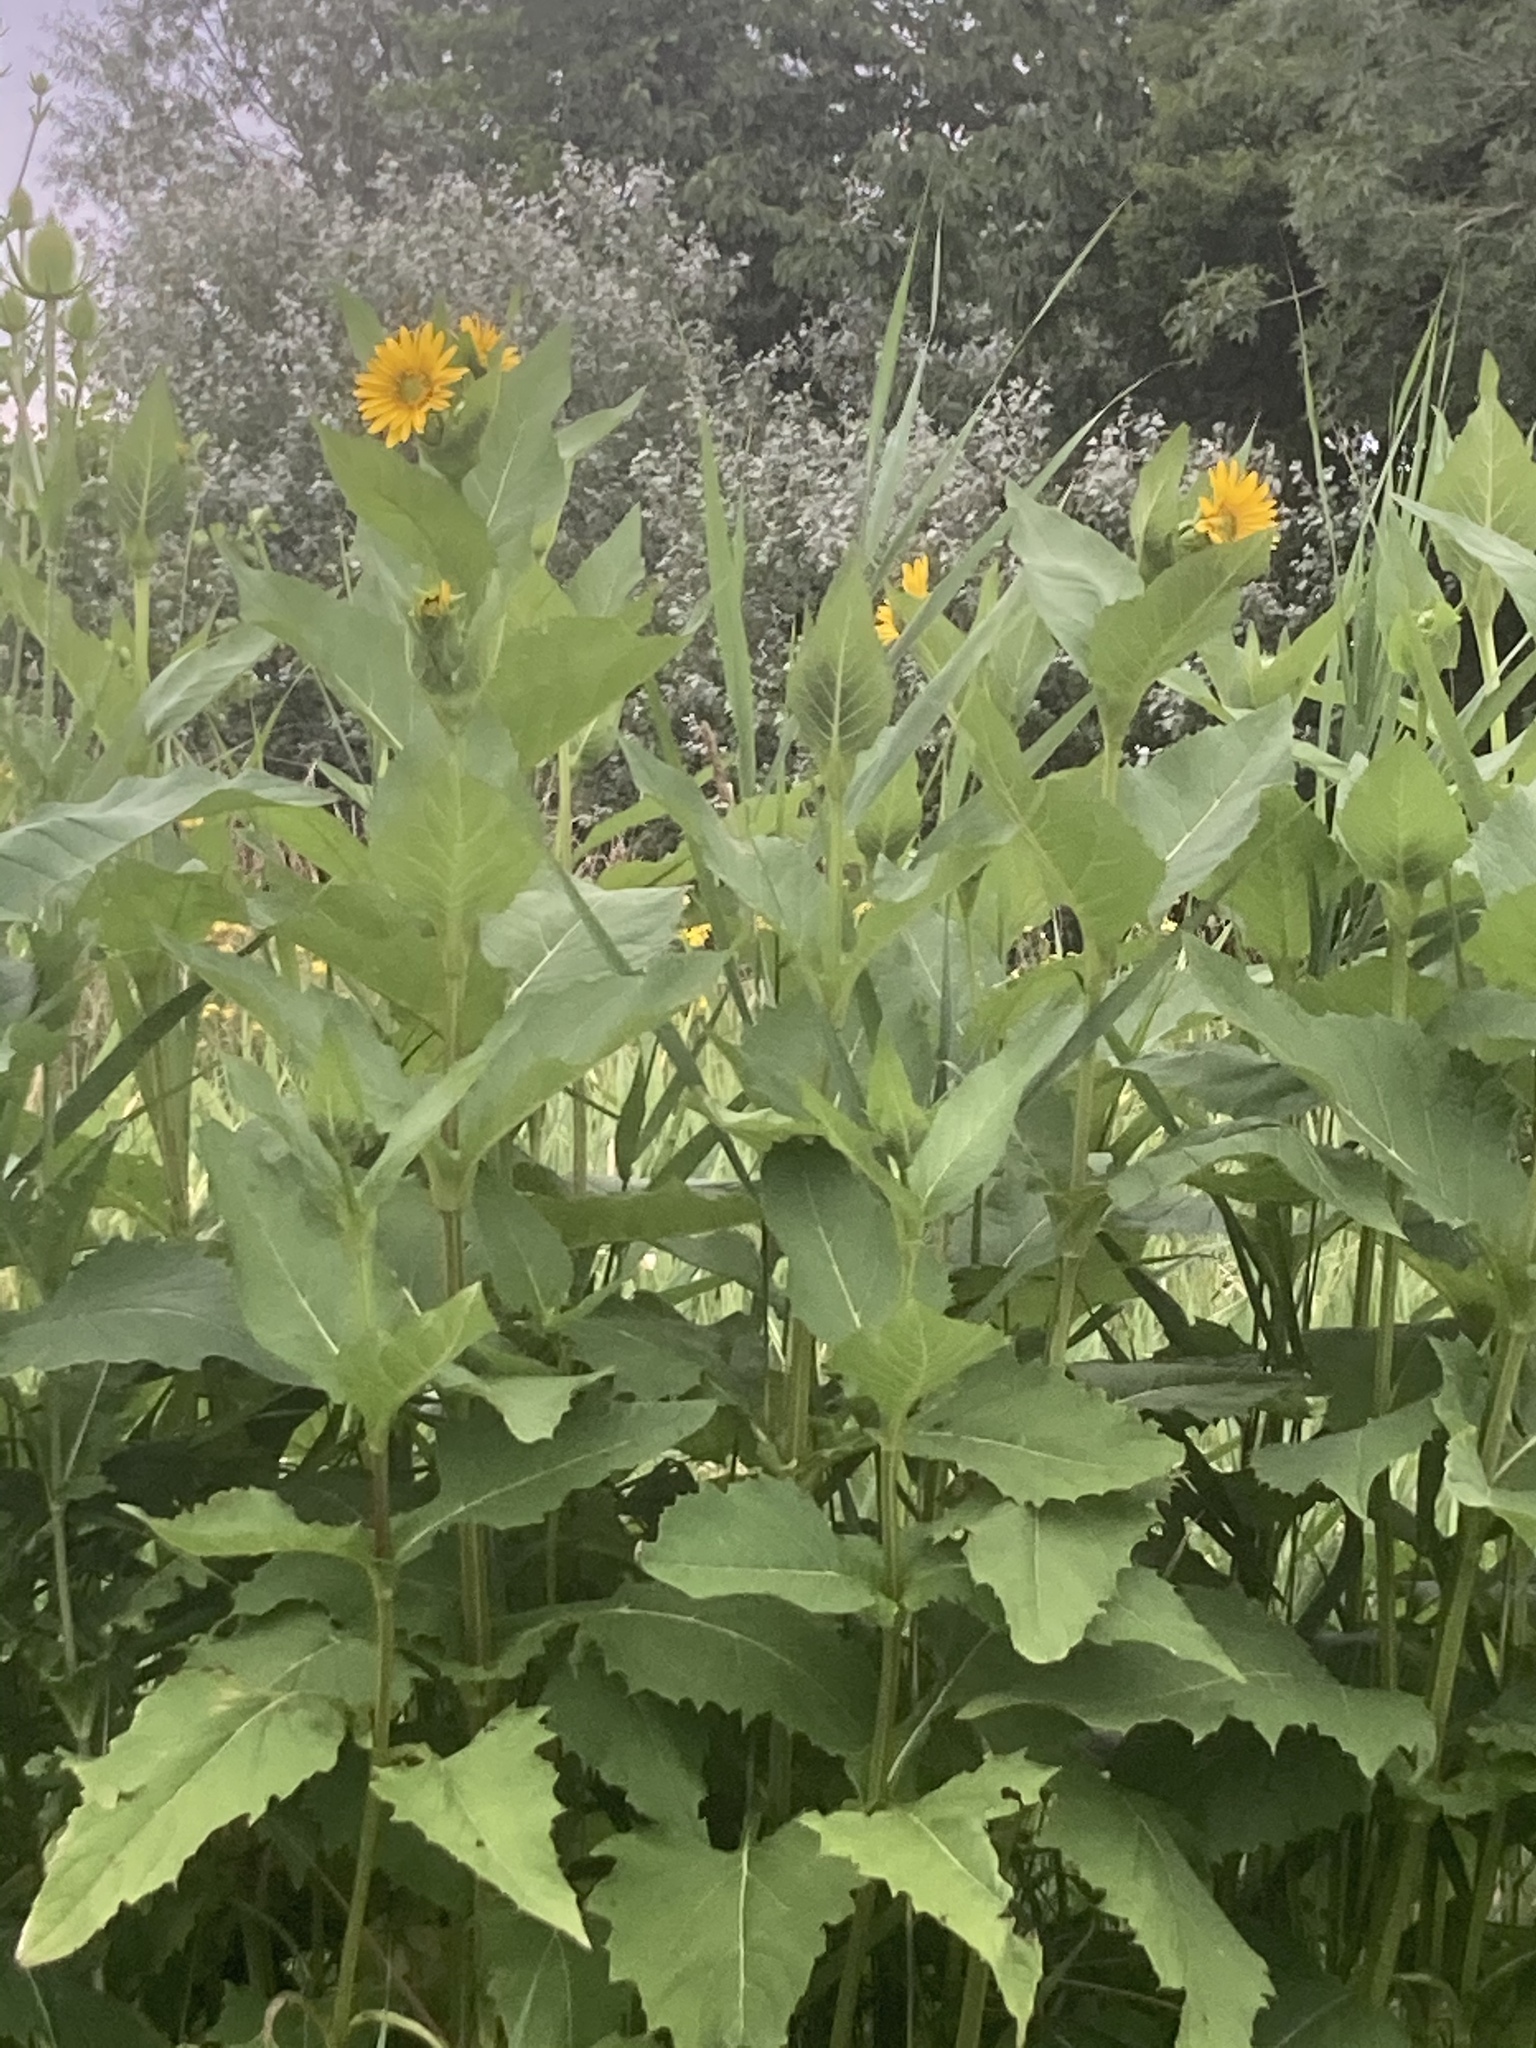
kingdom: Plantae
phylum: Tracheophyta
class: Magnoliopsida
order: Asterales
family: Asteraceae
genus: Silphium
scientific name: Silphium perfoliatum
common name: Cup-plant
